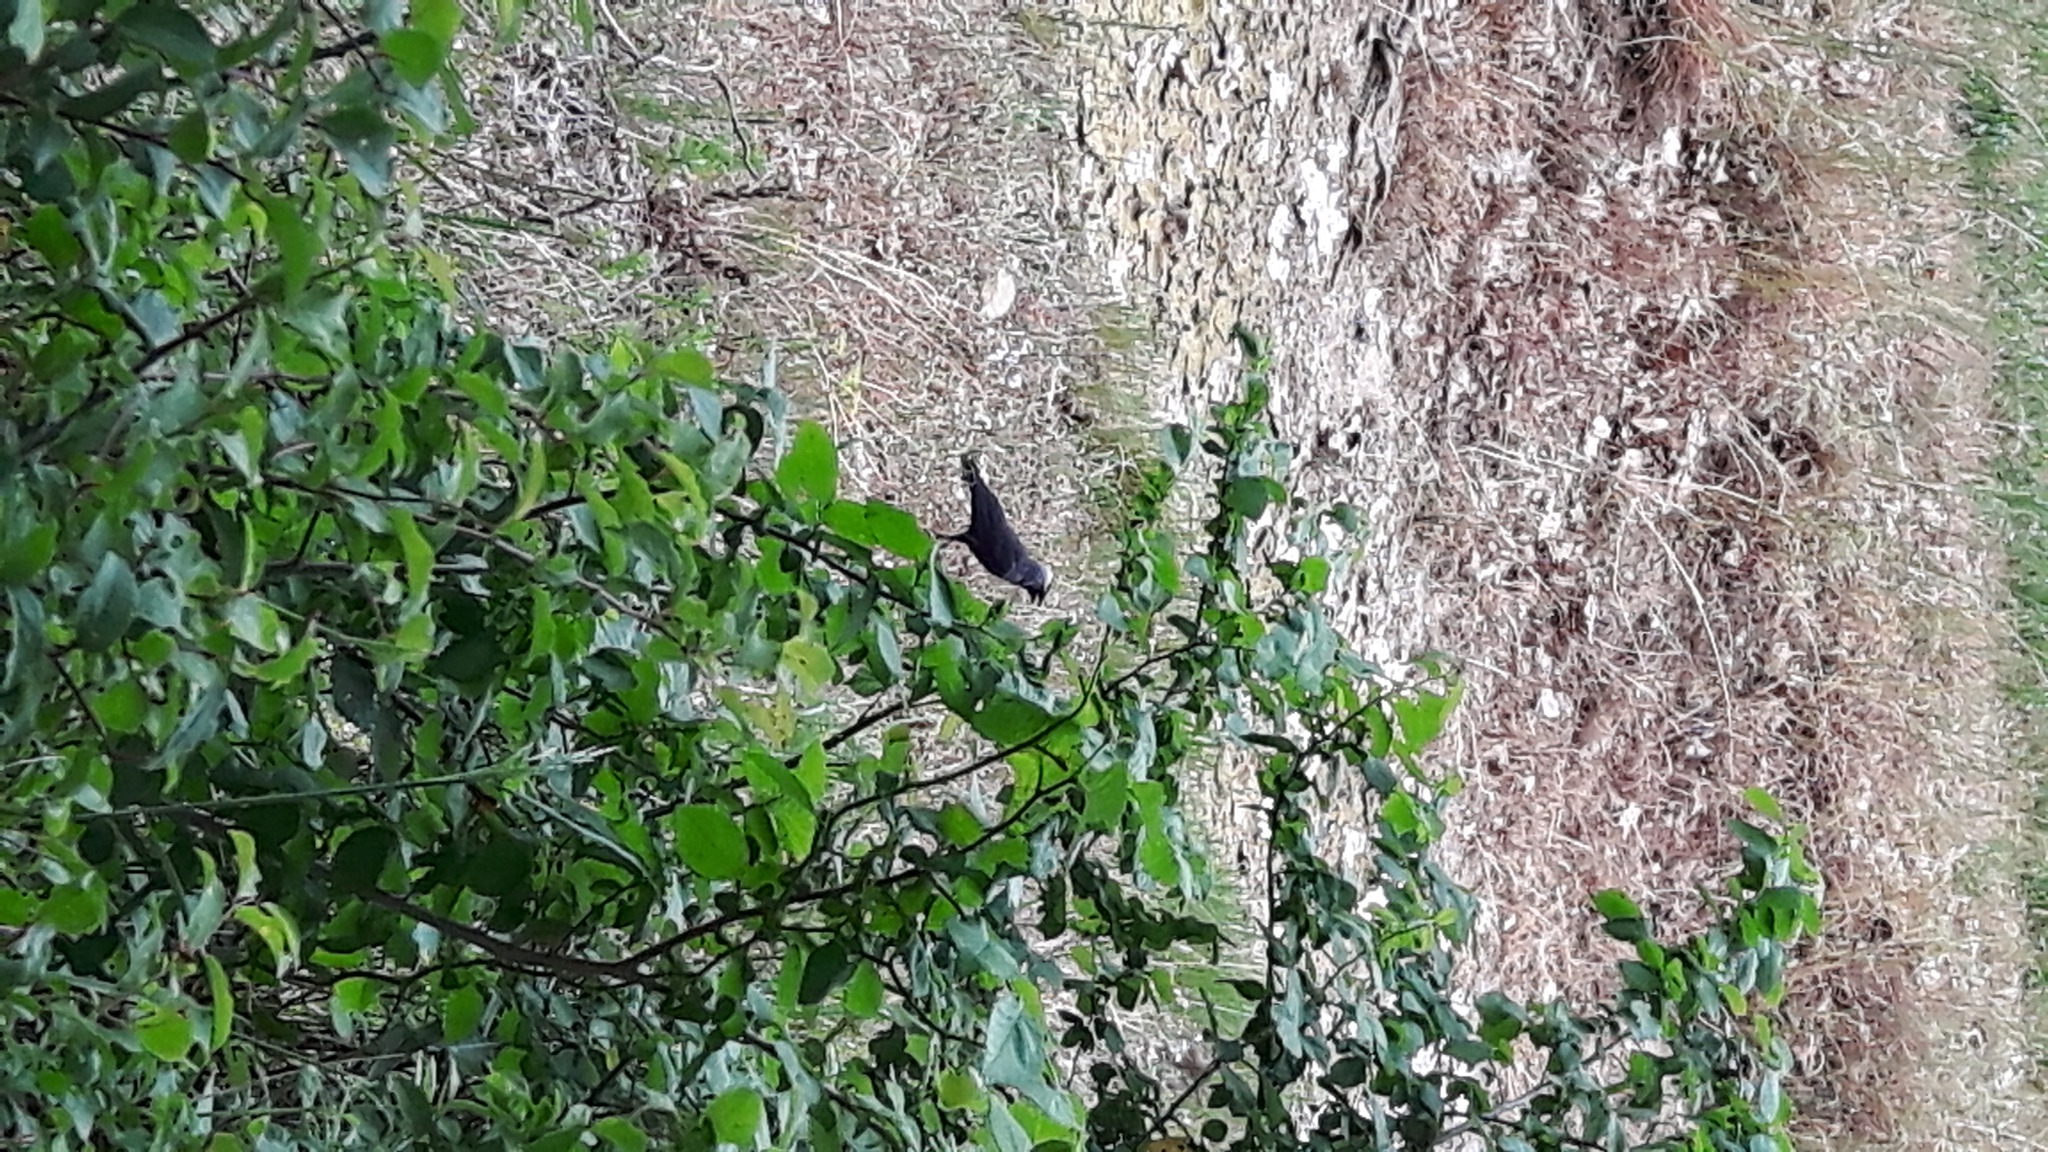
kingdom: Animalia
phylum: Chordata
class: Aves
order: Passeriformes
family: Corvidae
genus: Coloeus
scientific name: Coloeus monedula
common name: Western jackdaw
